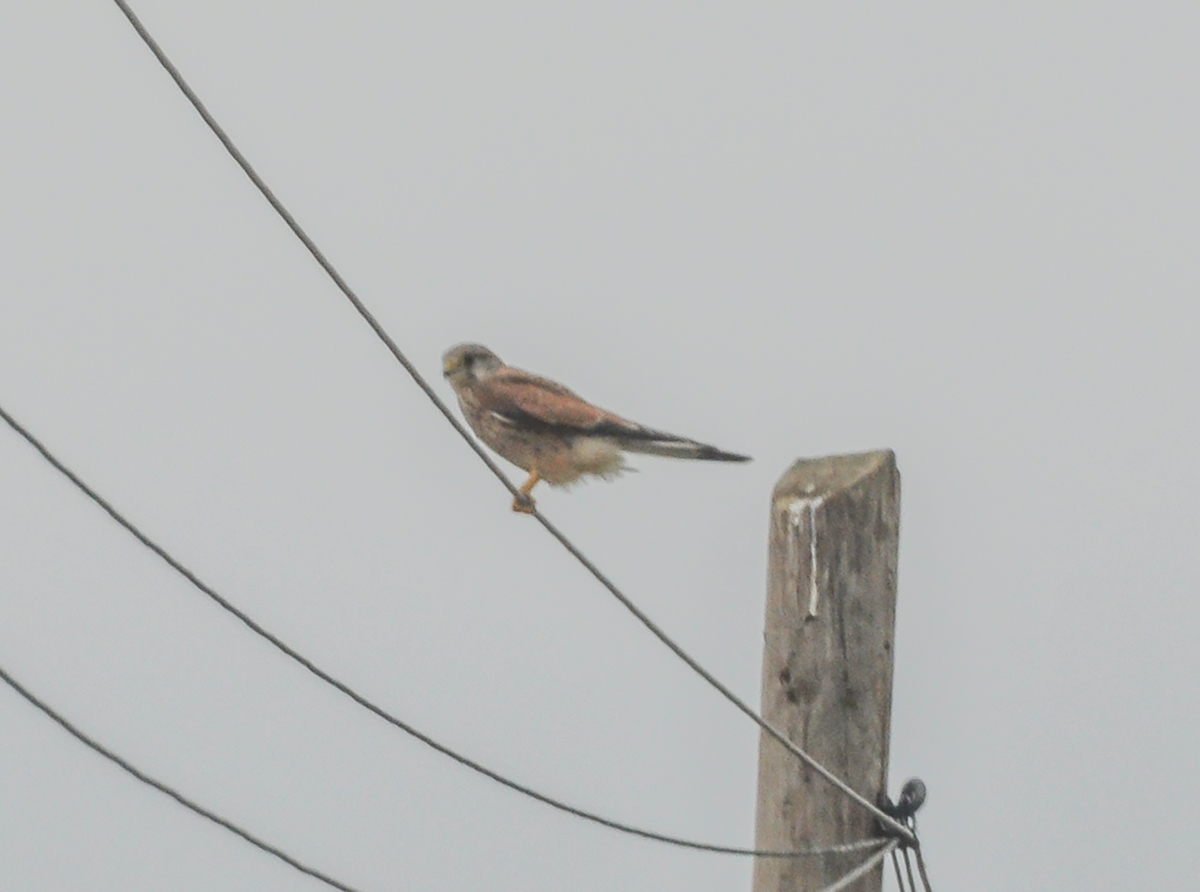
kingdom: Animalia
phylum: Chordata
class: Aves
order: Falconiformes
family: Falconidae
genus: Falco
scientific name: Falco tinnunculus
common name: Common kestrel
